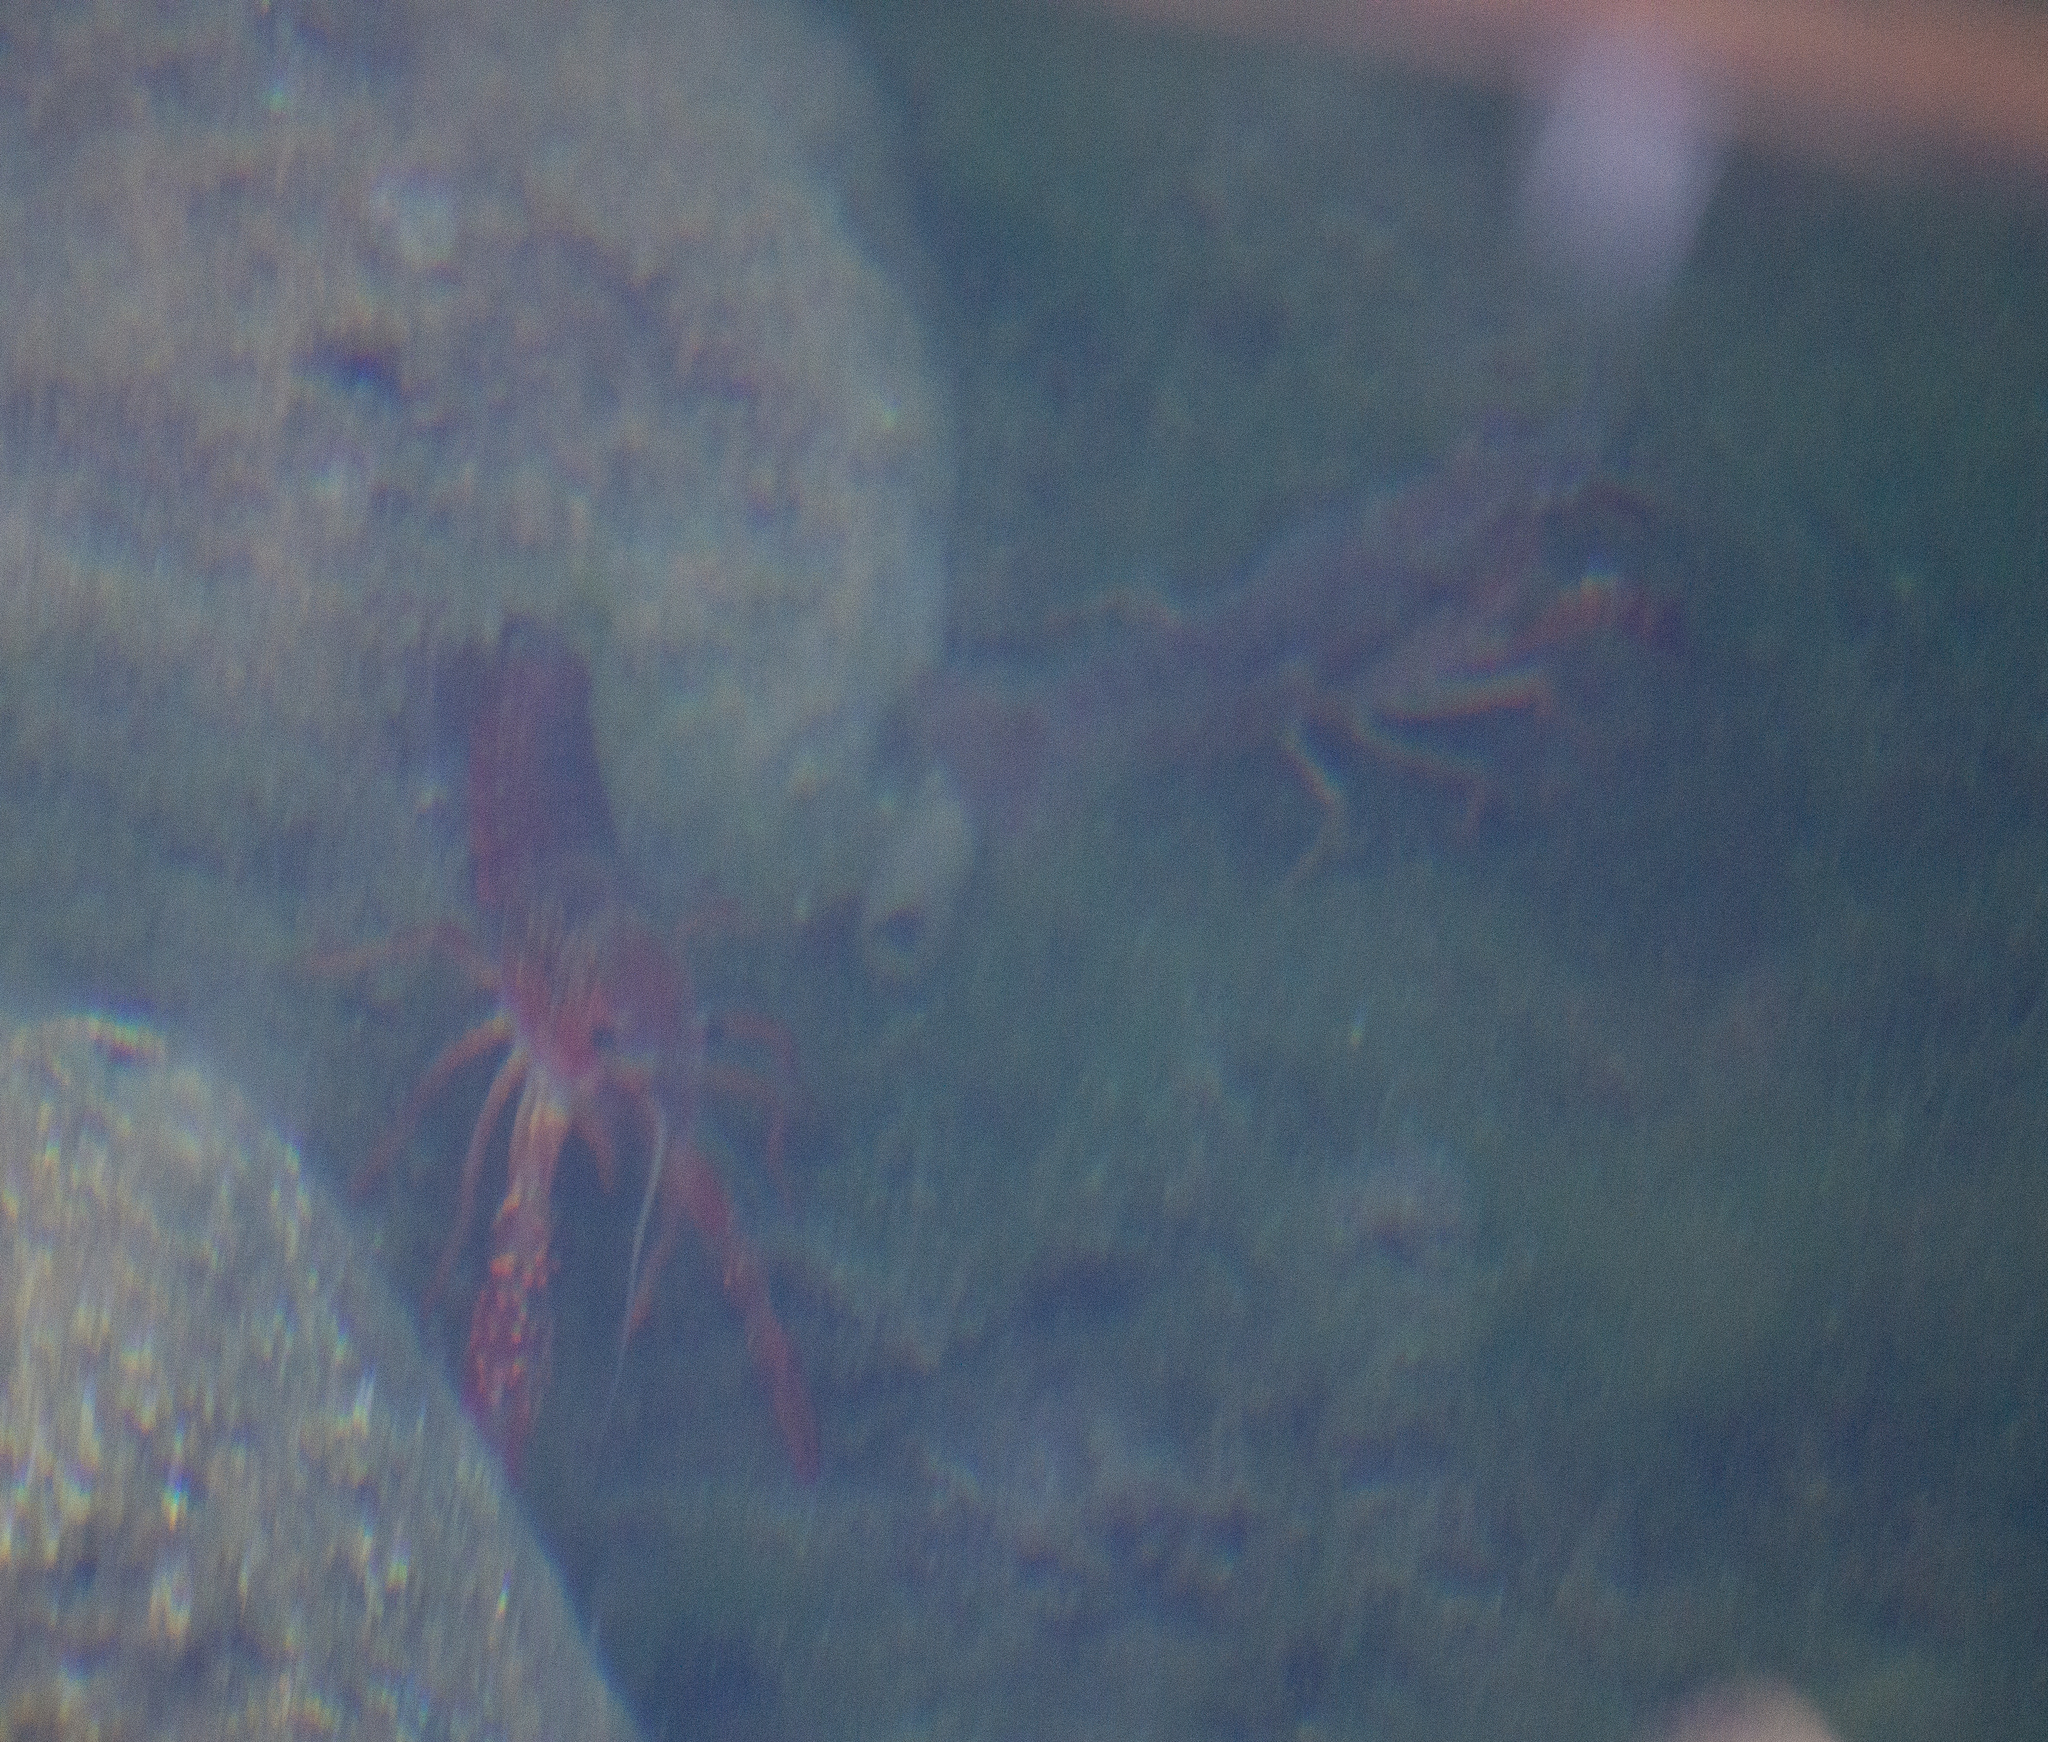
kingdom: Animalia
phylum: Arthropoda
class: Malacostraca
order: Decapoda
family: Cambaridae
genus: Procambarus
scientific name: Procambarus clarkii
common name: Red swamp crayfish
